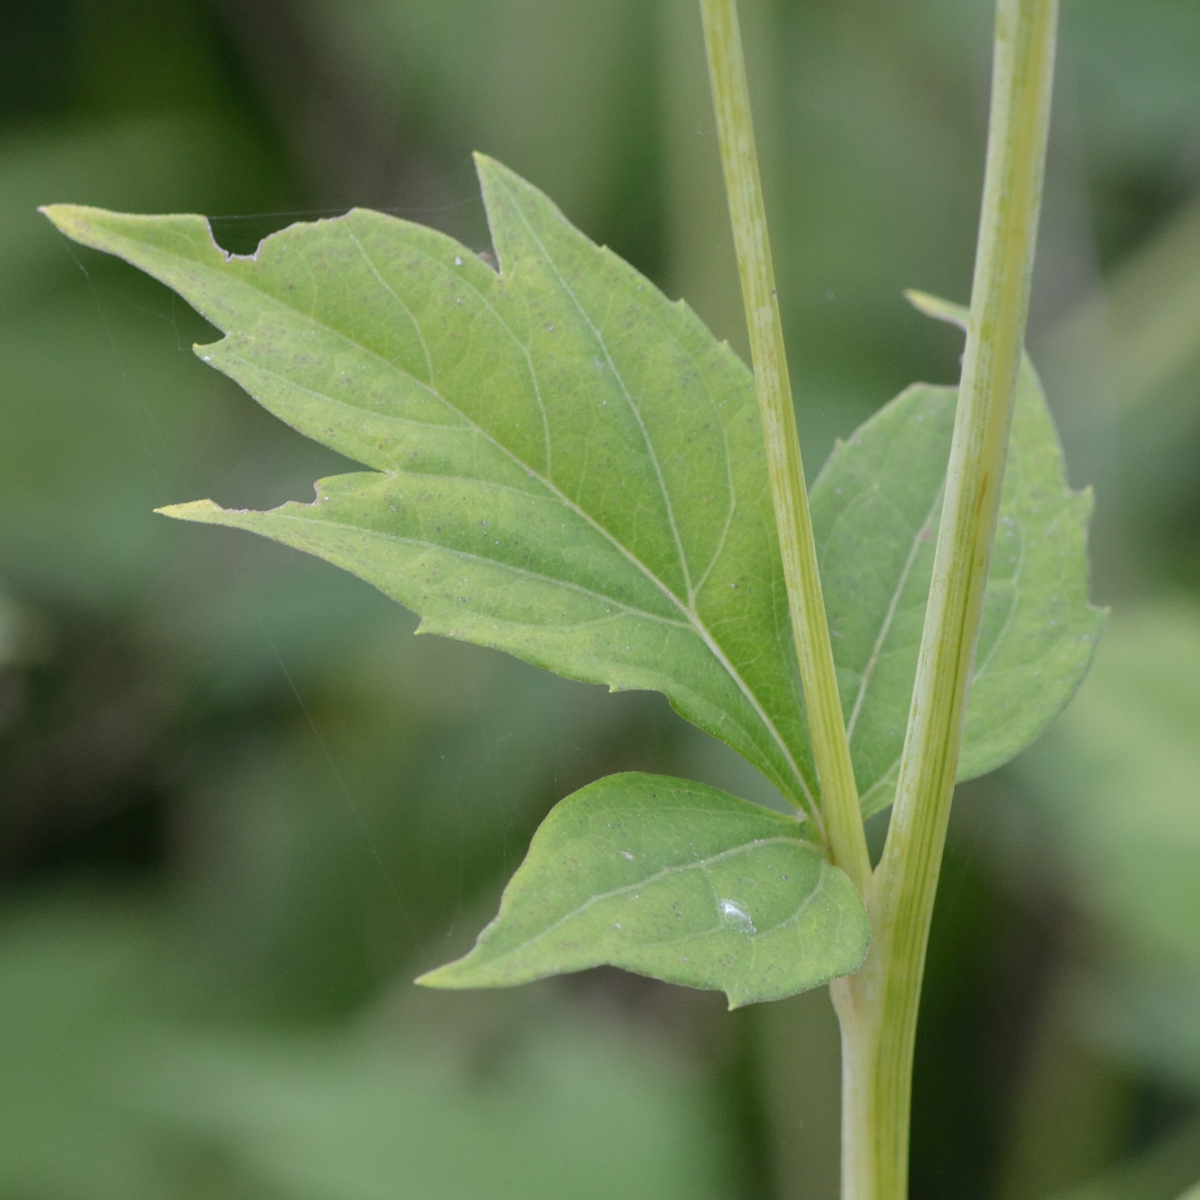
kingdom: Plantae
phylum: Tracheophyta
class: Magnoliopsida
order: Asterales
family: Asteraceae
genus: Rudbeckia
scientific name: Rudbeckia laciniata
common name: Coneflower
